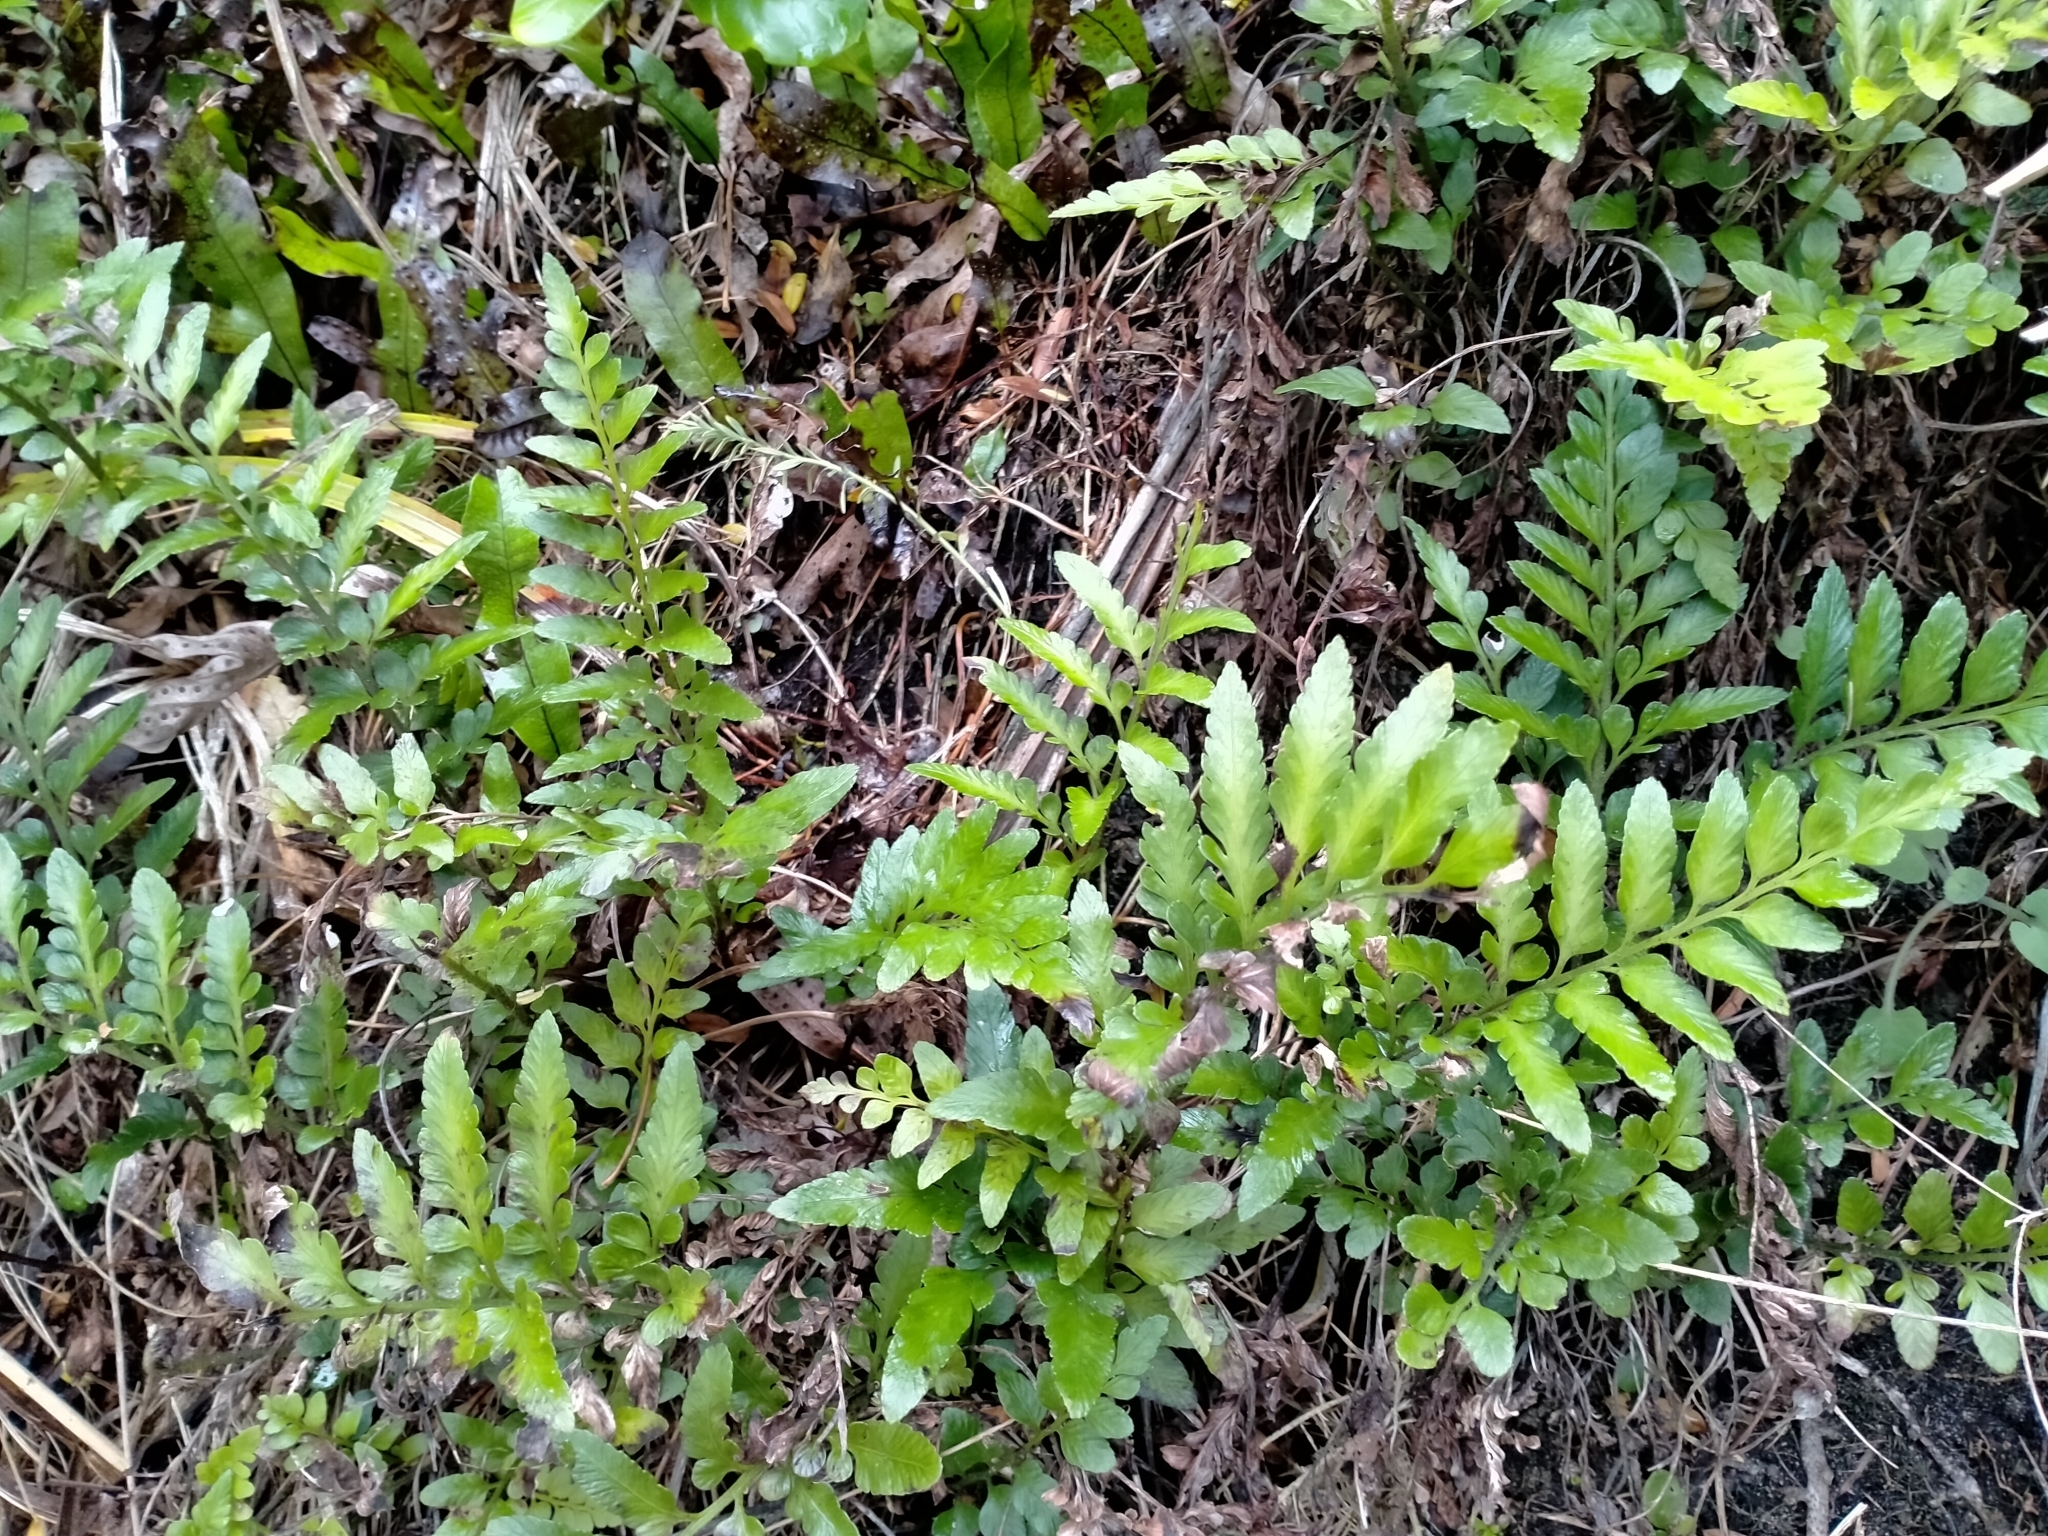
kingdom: Plantae
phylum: Tracheophyta
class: Polypodiopsida
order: Polypodiales
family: Aspleniaceae
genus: Asplenium
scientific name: Asplenium lyallii
